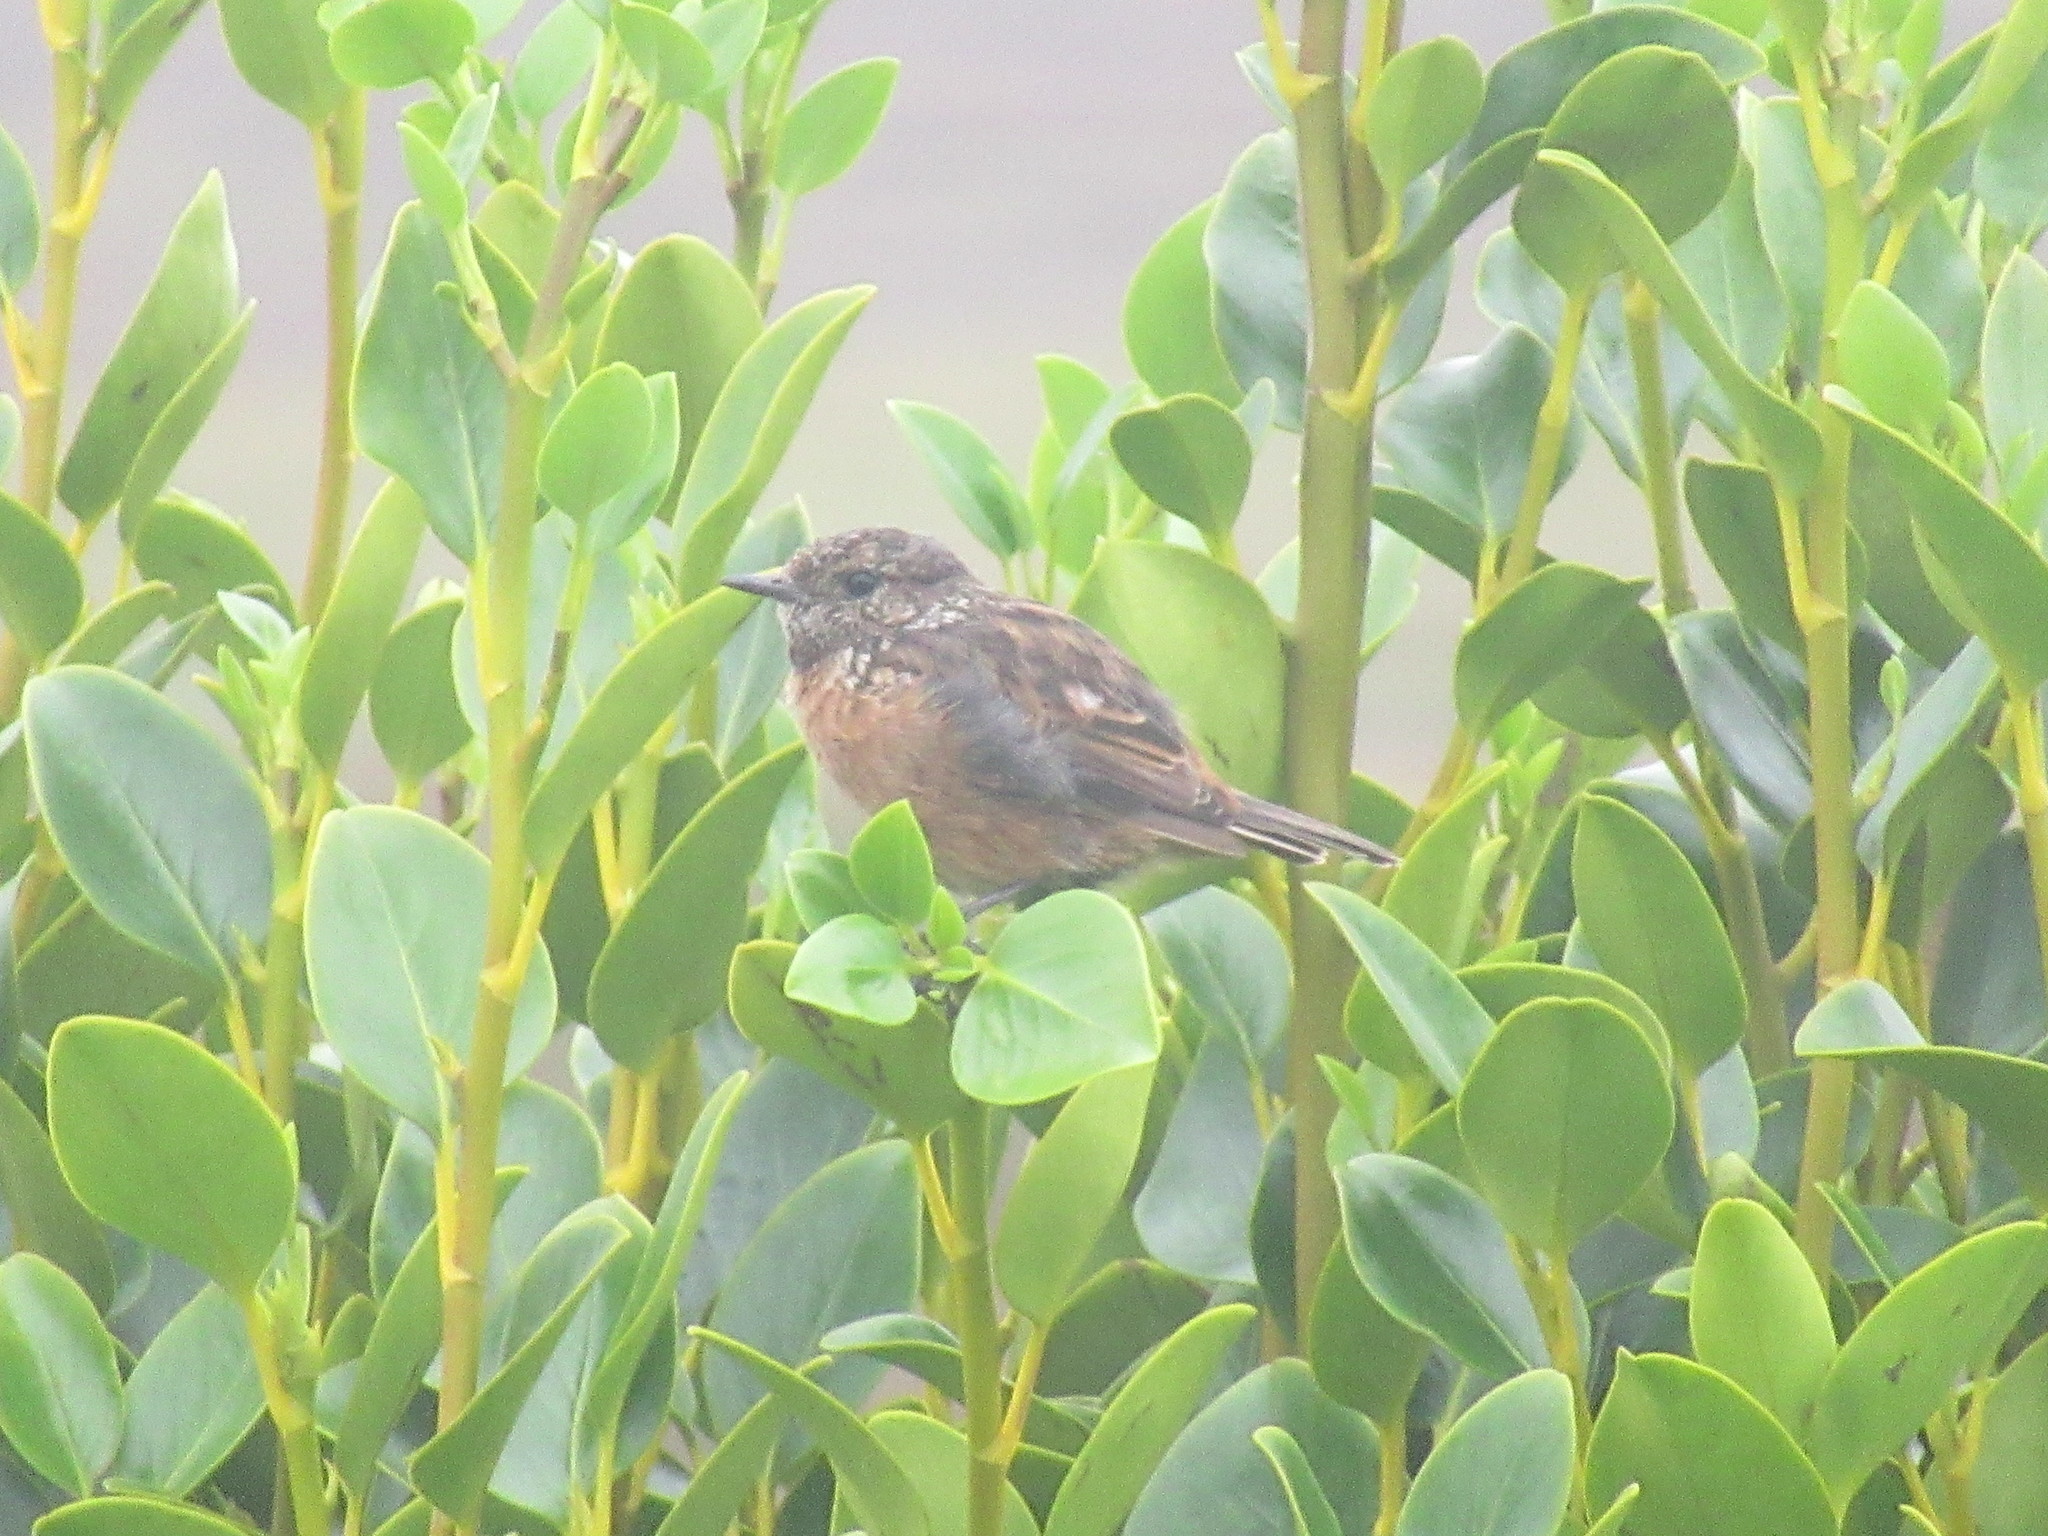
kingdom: Animalia
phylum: Chordata
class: Aves
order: Passeriformes
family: Muscicapidae
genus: Saxicola
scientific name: Saxicola rubicola
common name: European stonechat
